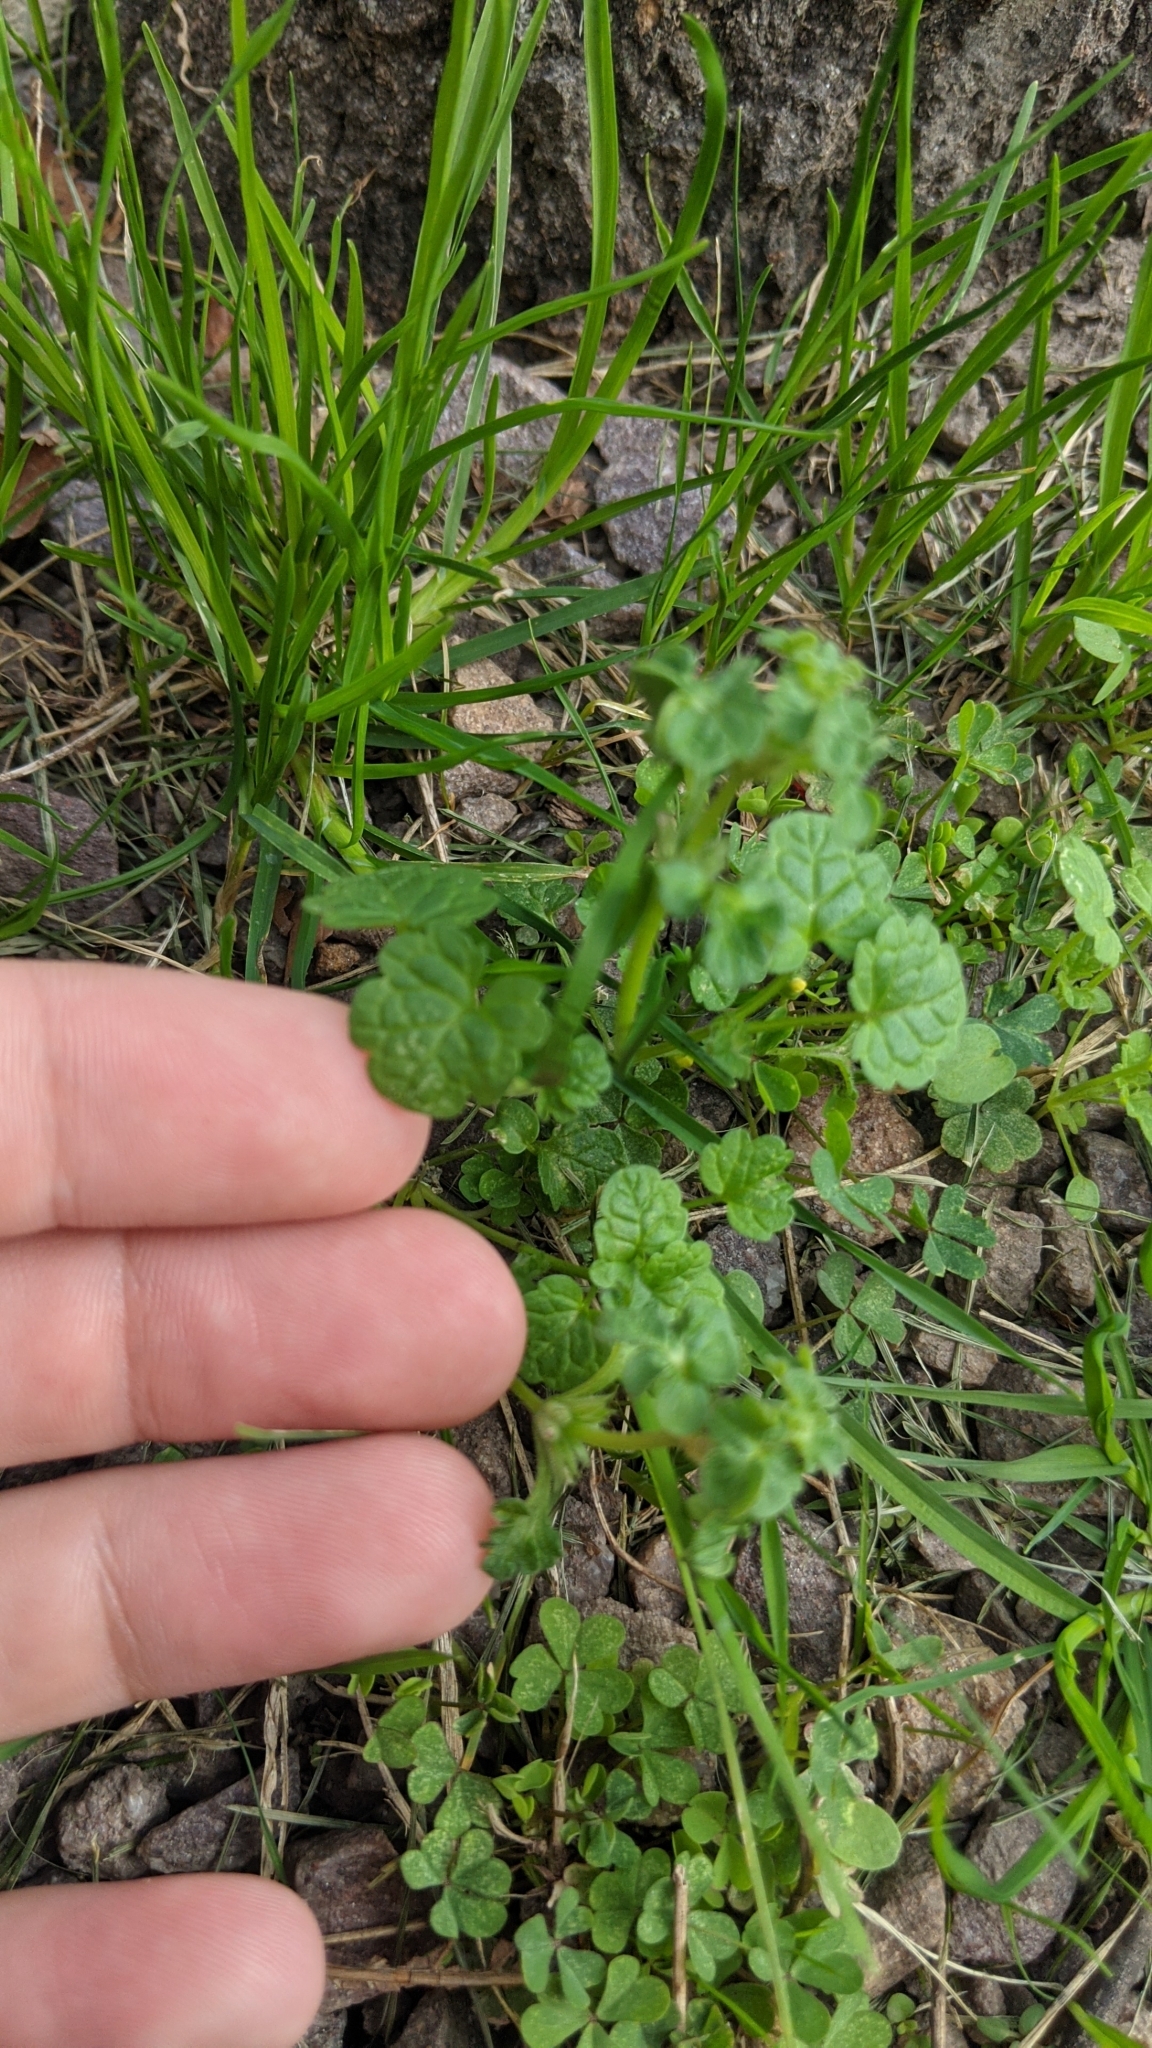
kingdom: Plantae
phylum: Tracheophyta
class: Magnoliopsida
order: Lamiales
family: Lamiaceae
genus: Glechoma
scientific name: Glechoma hederacea
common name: Ground ivy
